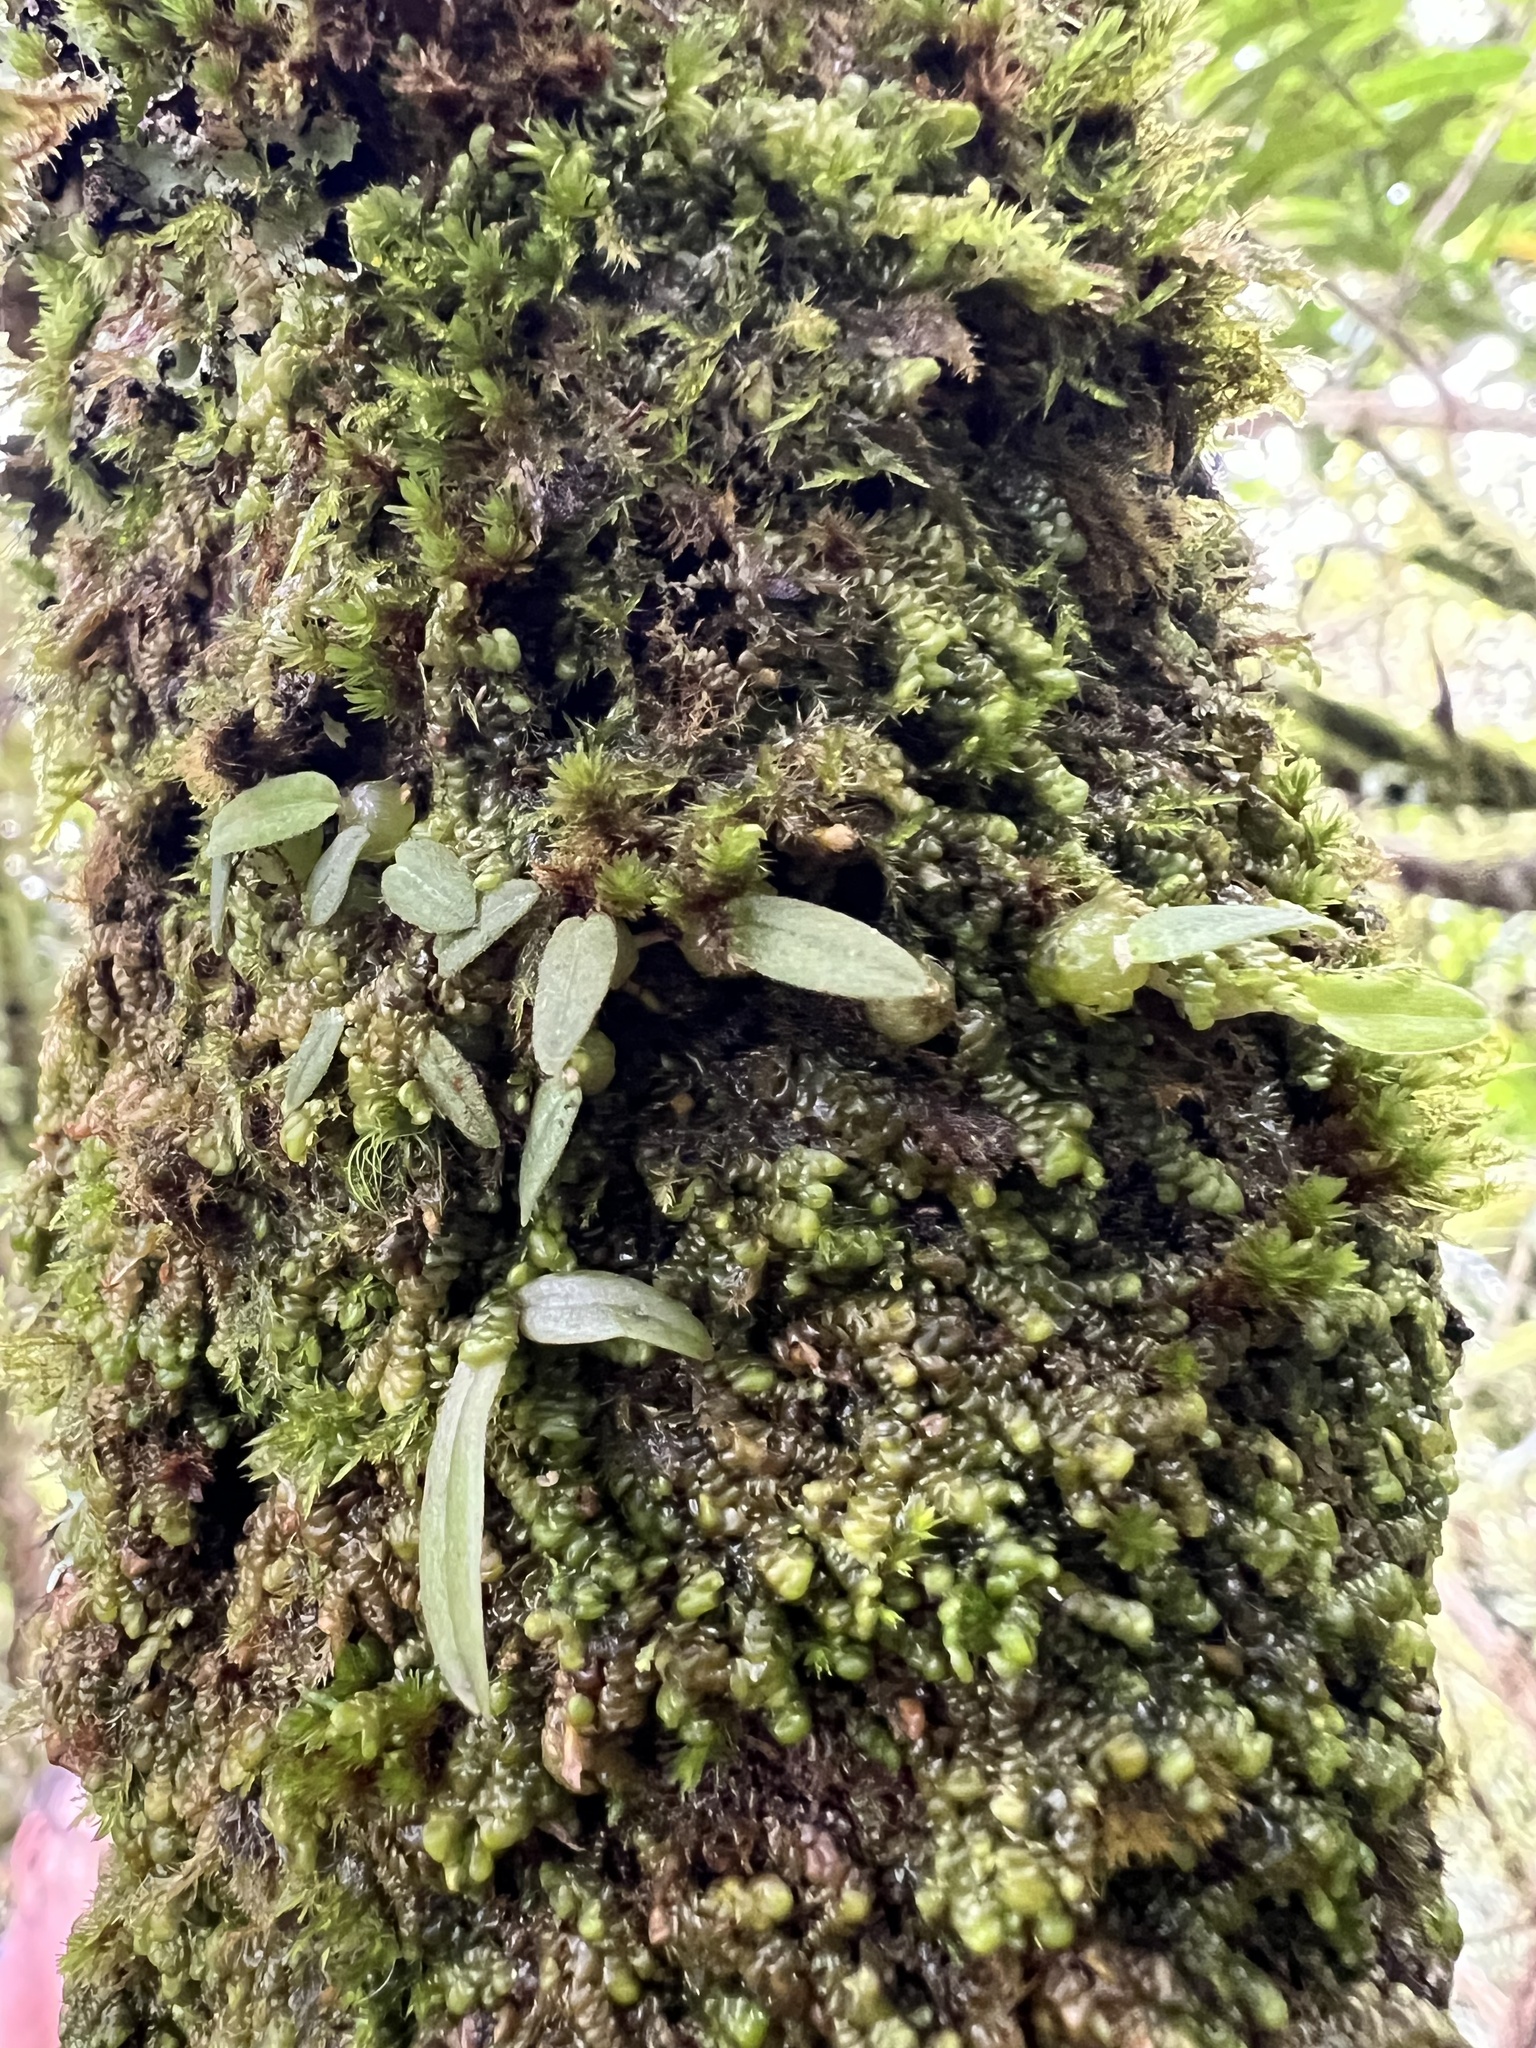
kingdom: Plantae
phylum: Tracheophyta
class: Liliopsida
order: Asparagales
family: Orchidaceae
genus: Bulbophyllum
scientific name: Bulbophyllum pygmaeum
